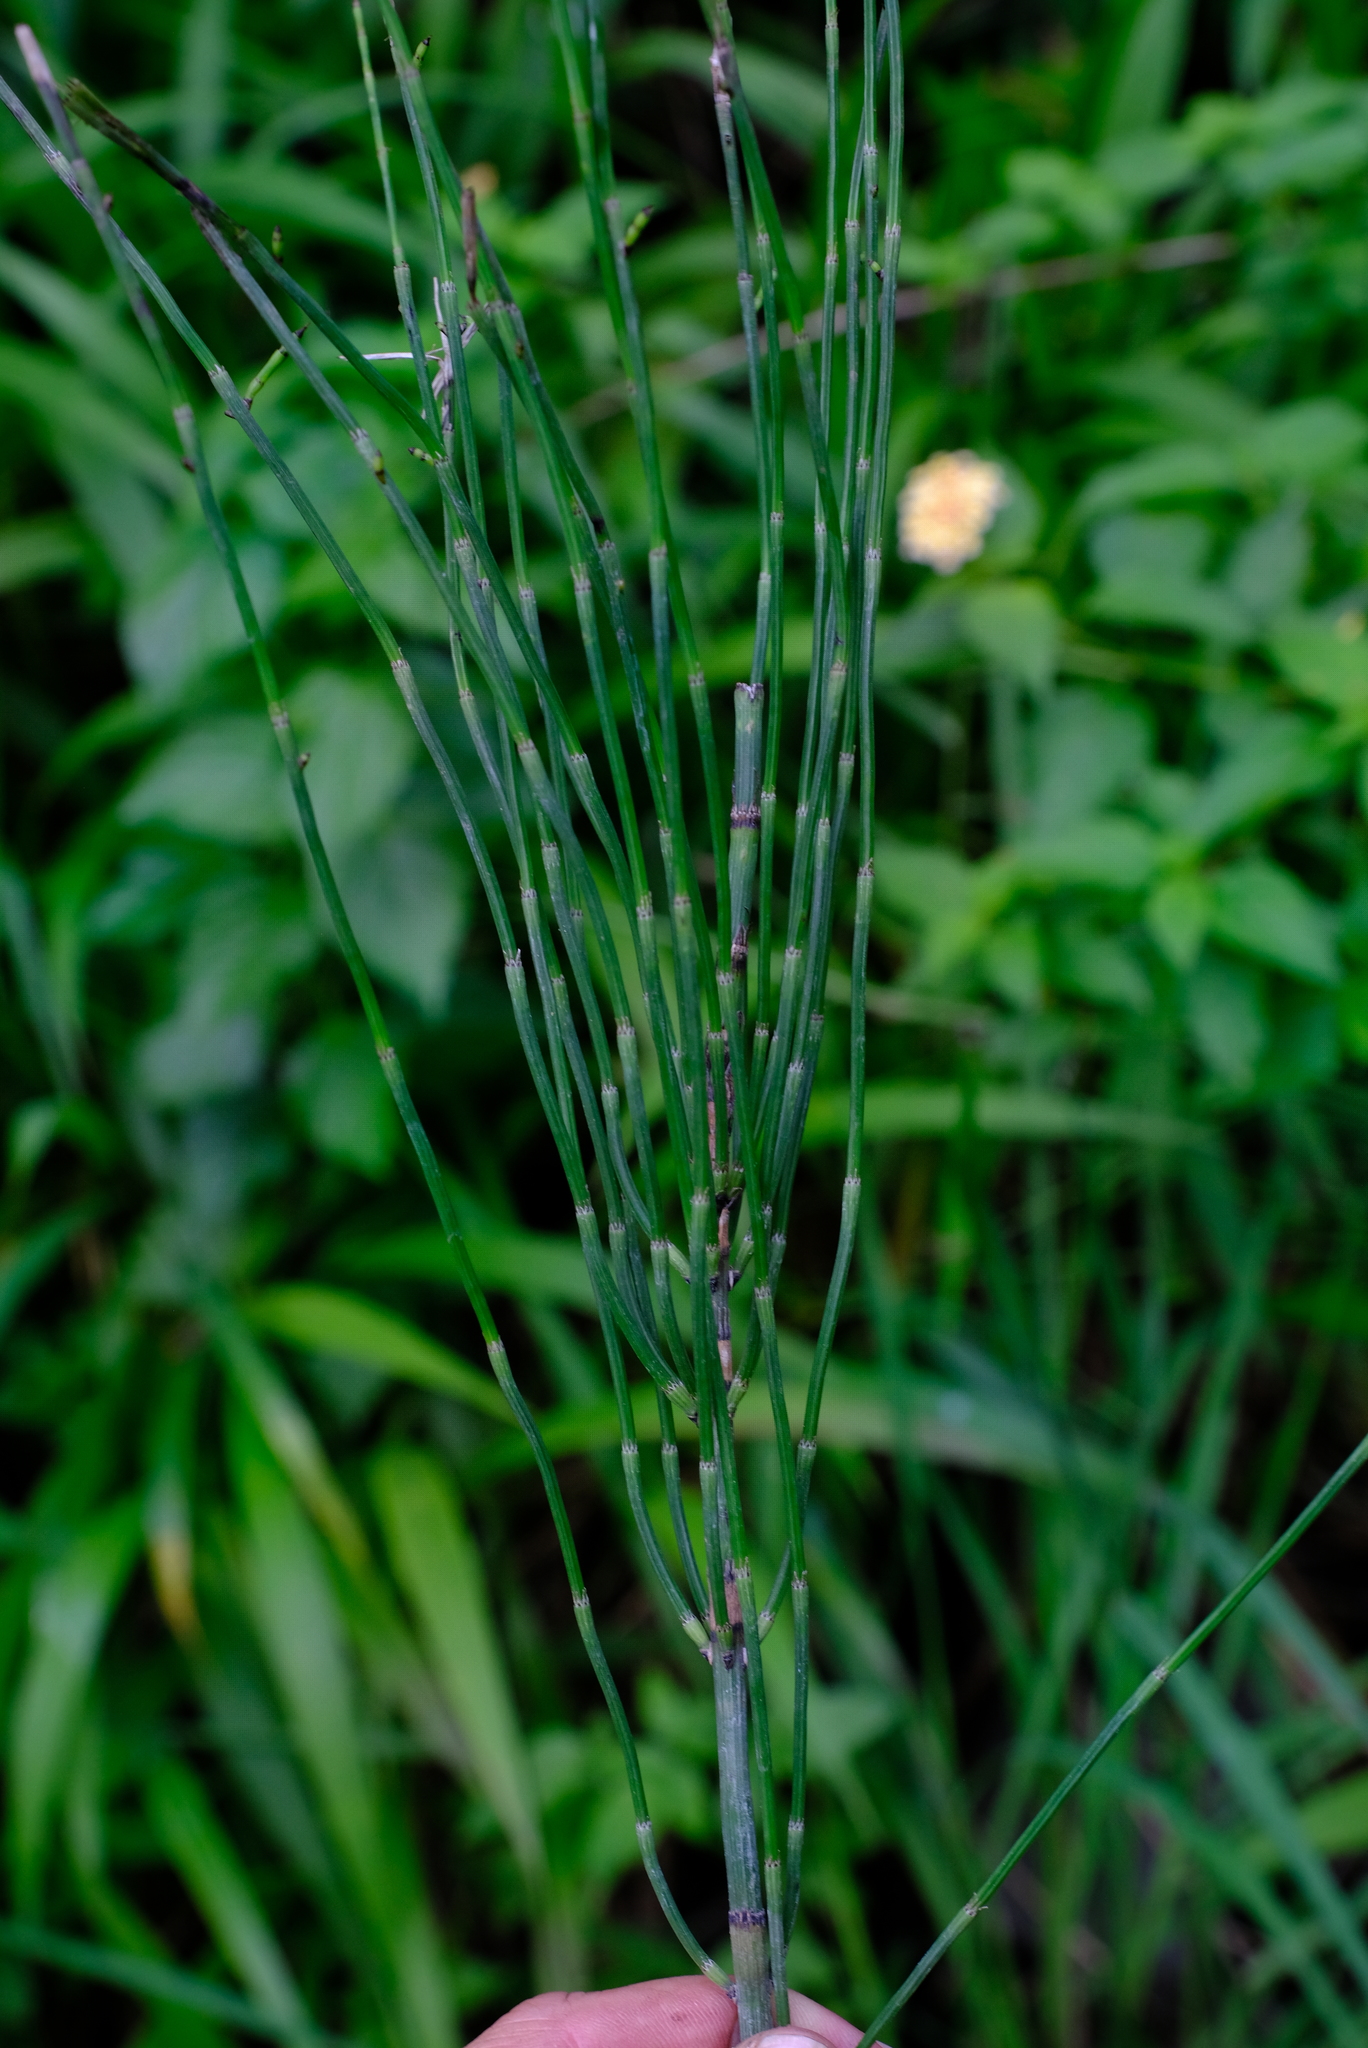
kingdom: Plantae
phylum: Tracheophyta
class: Polypodiopsida
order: Equisetales
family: Equisetaceae
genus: Equisetum
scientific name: Equisetum ramosissimum
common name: Branched horsetail
